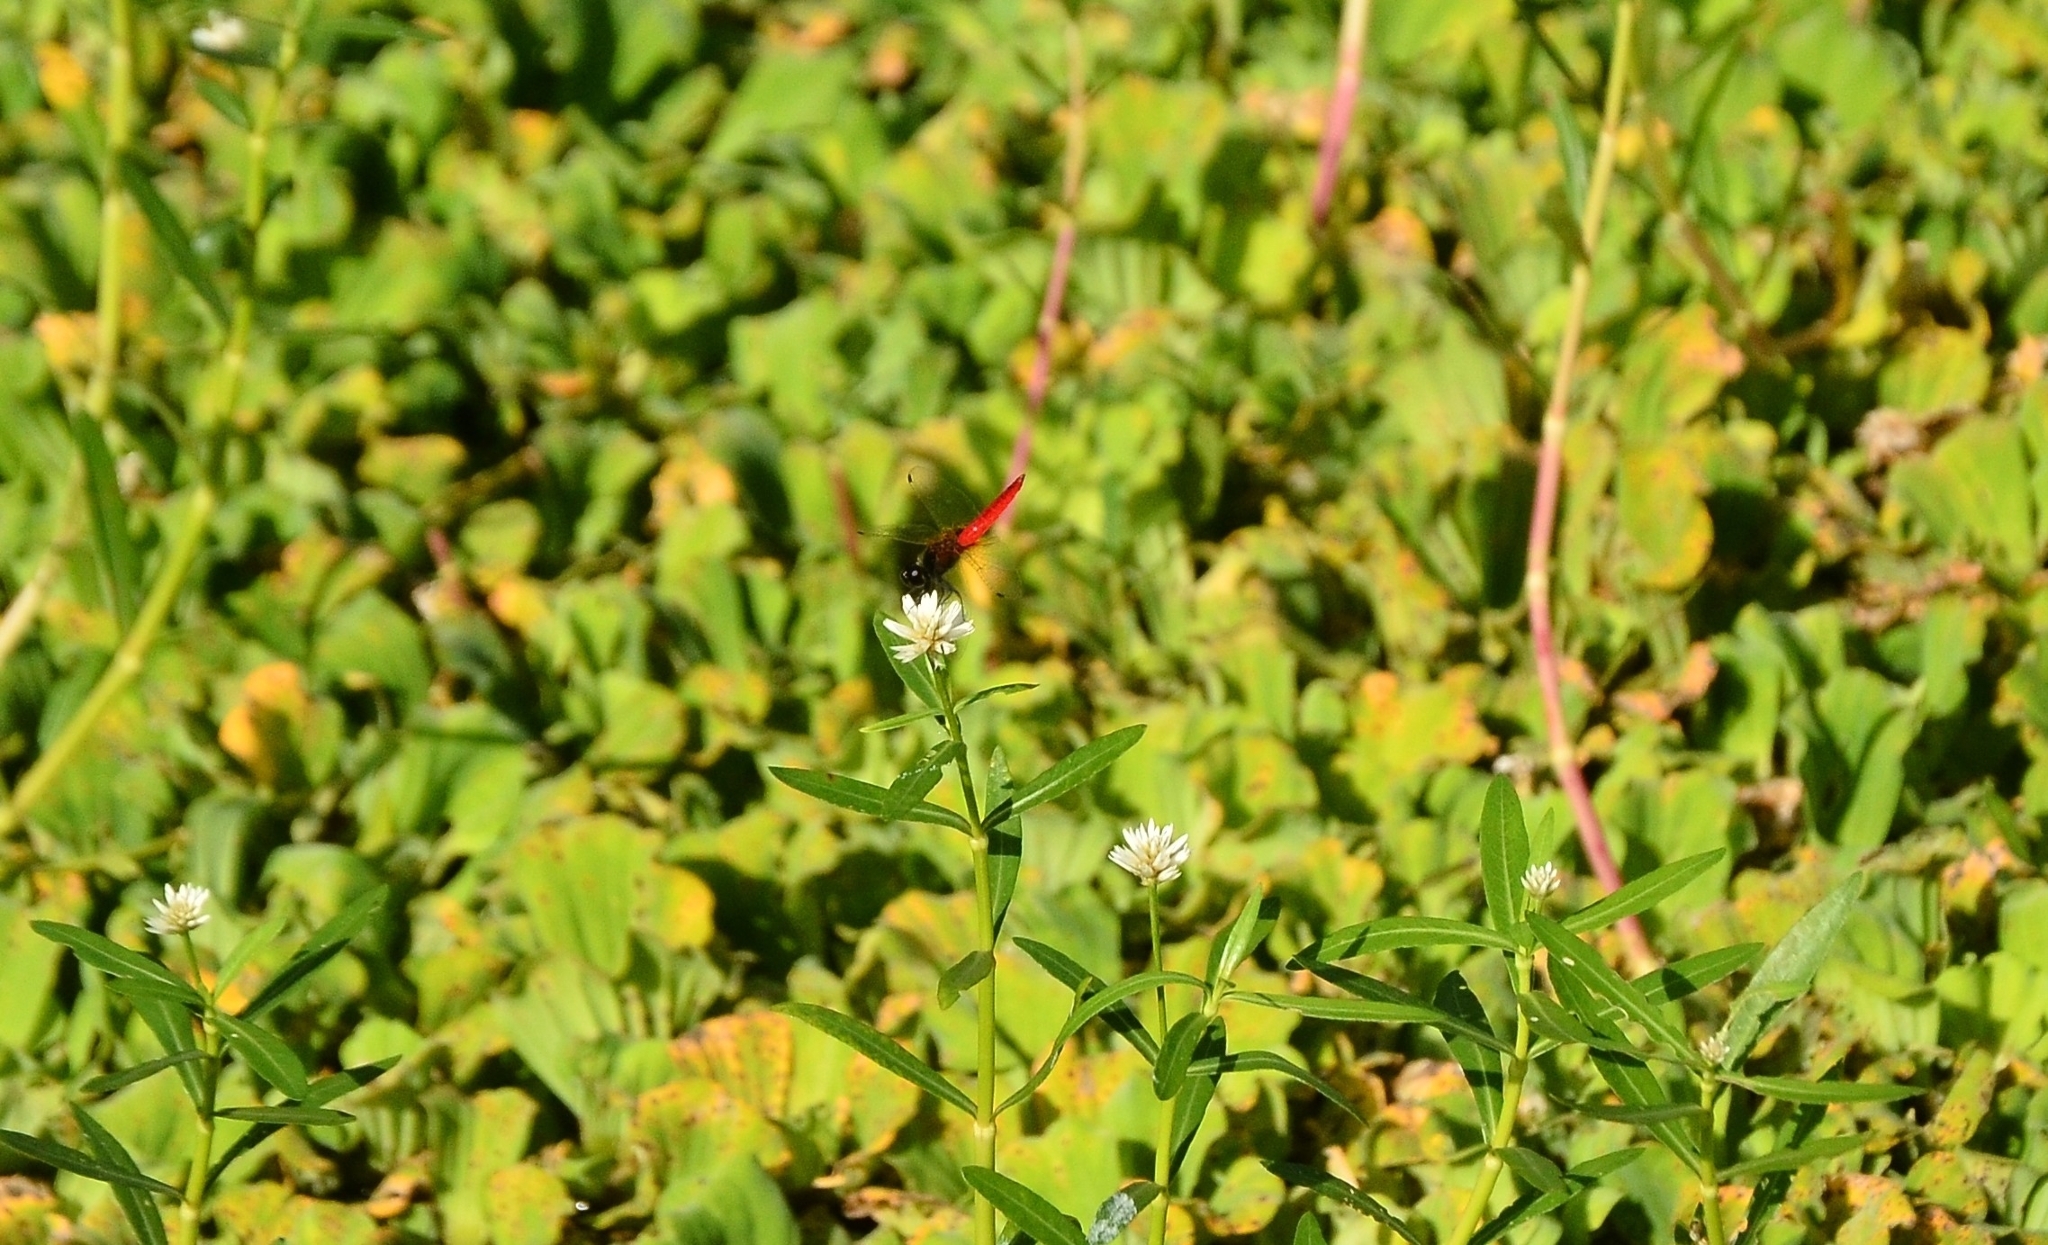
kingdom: Animalia
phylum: Arthropoda
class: Insecta
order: Odonata
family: Libellulidae
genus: Aethriamanta
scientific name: Aethriamanta brevipennis
